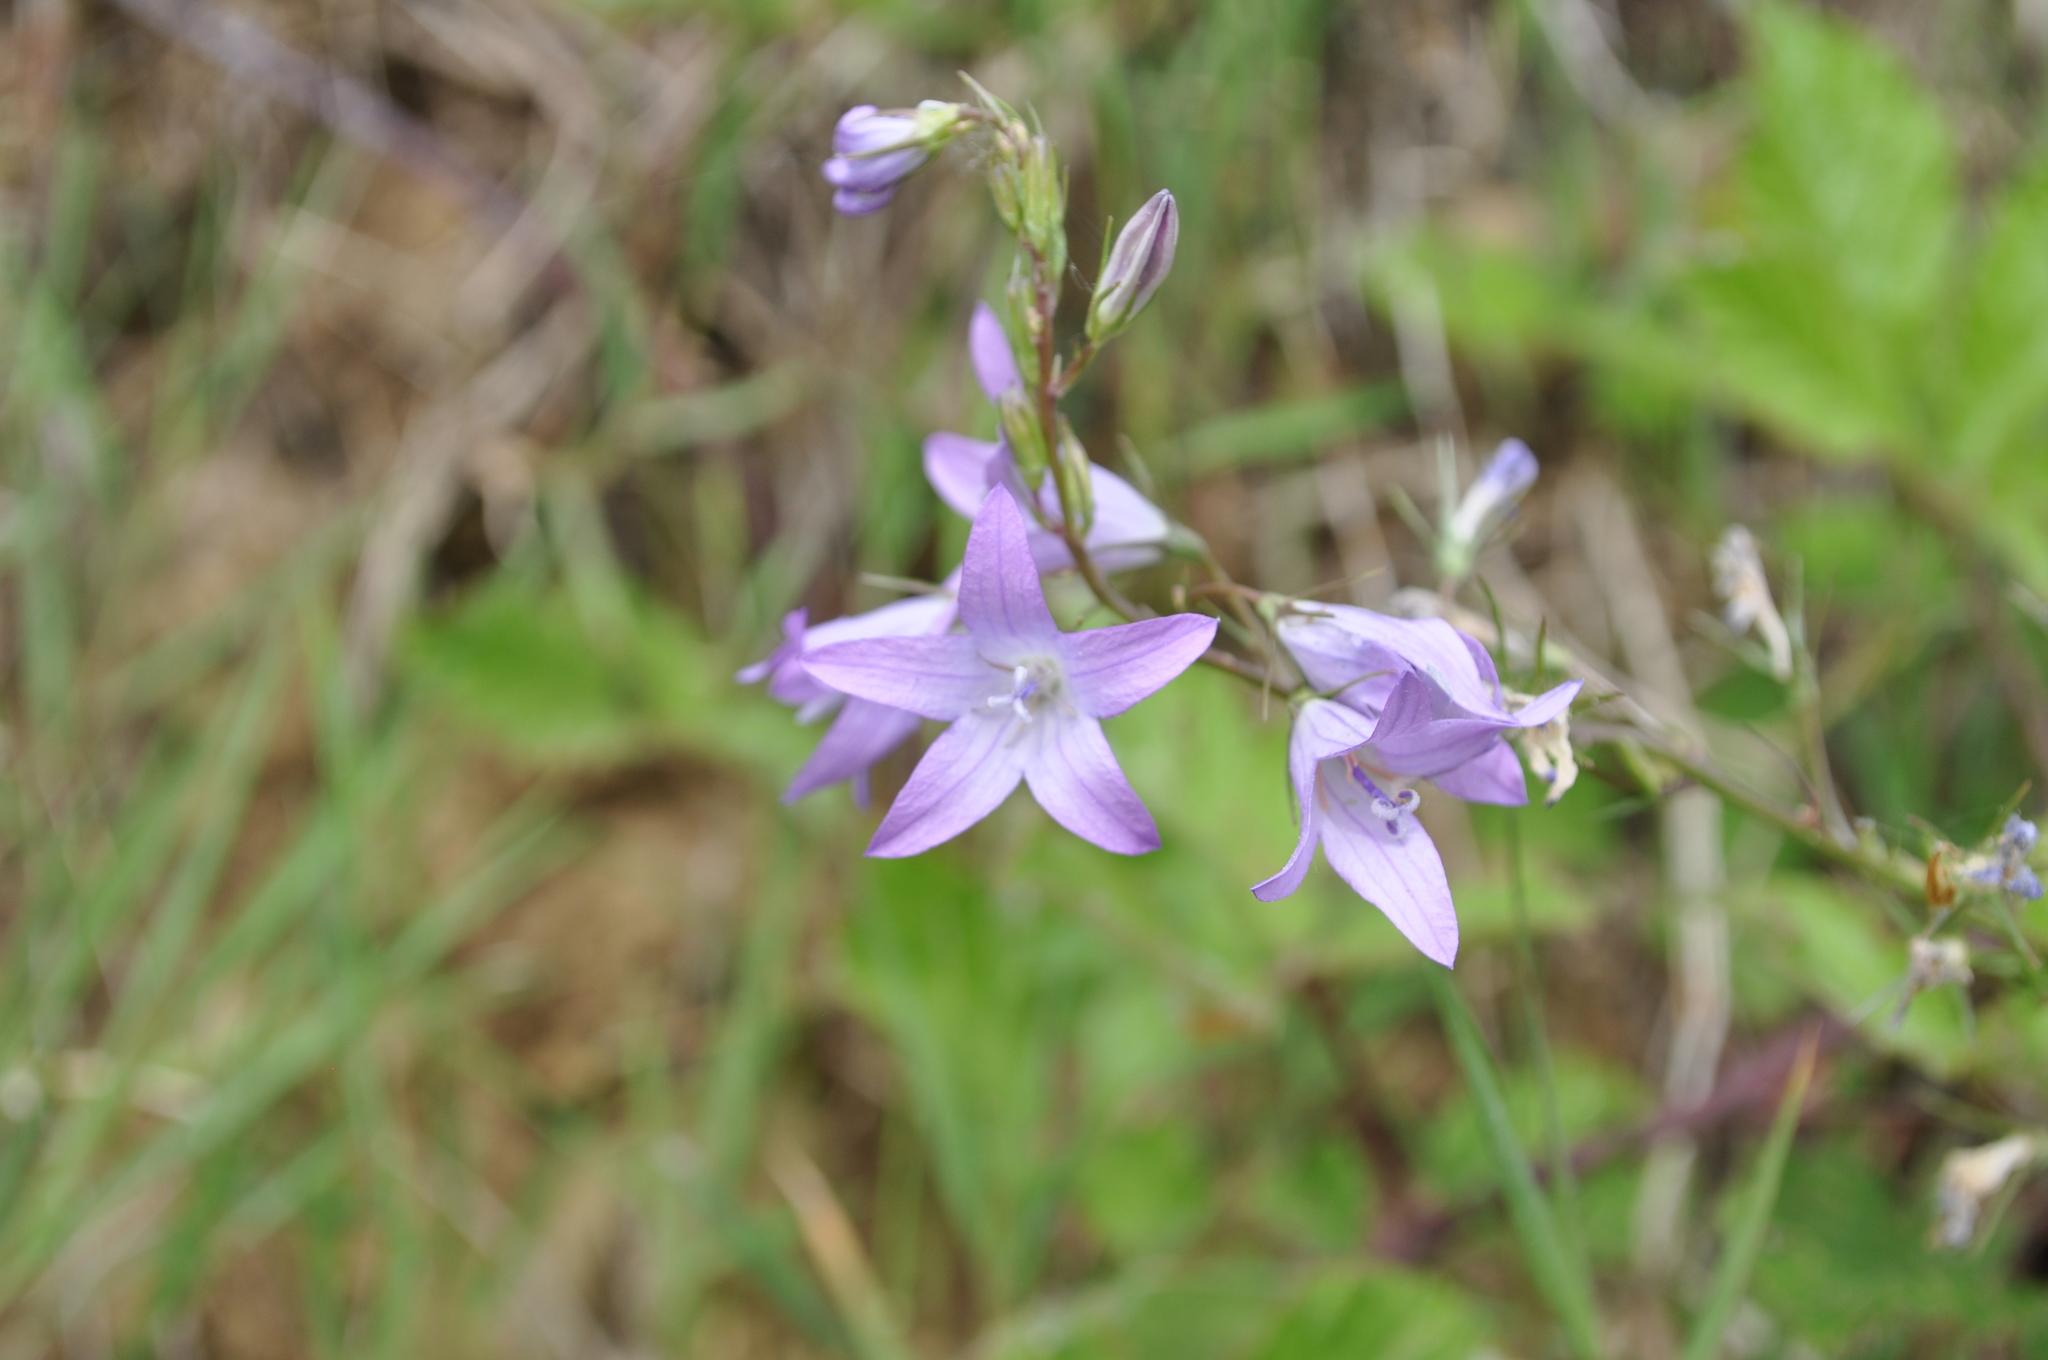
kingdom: Plantae
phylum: Tracheophyta
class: Magnoliopsida
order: Asterales
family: Campanulaceae
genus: Campanula
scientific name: Campanula rapunculus
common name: Rampion bellflower
